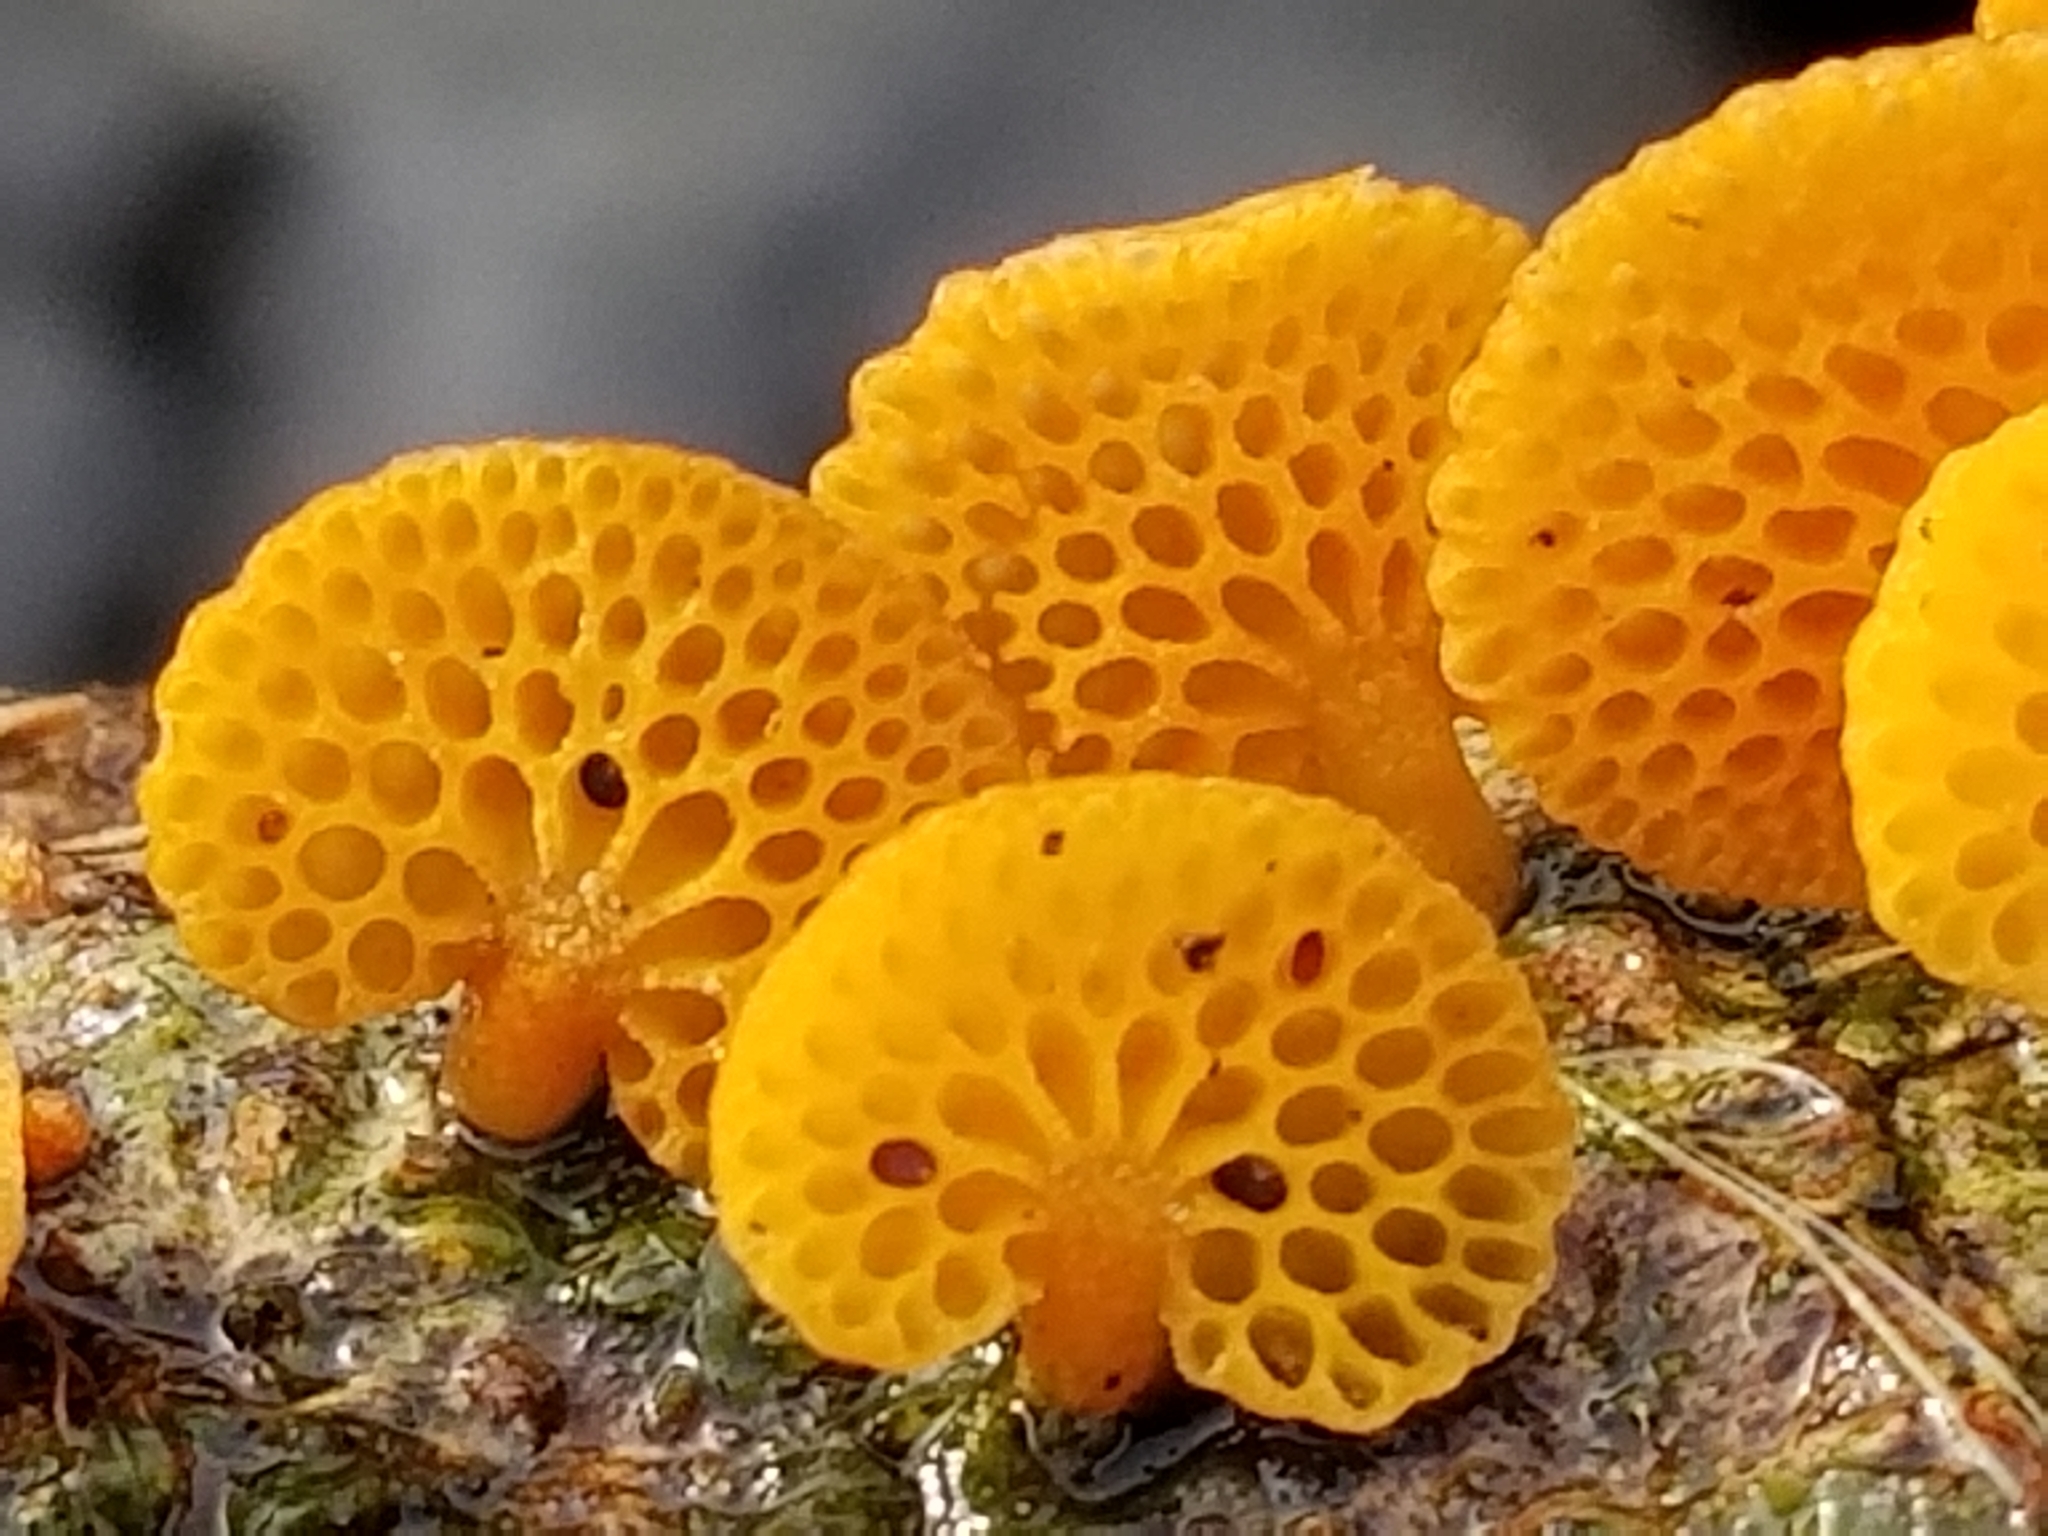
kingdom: Fungi
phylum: Basidiomycota
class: Agaricomycetes
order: Agaricales
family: Mycenaceae
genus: Favolaschia
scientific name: Favolaschia claudopus
